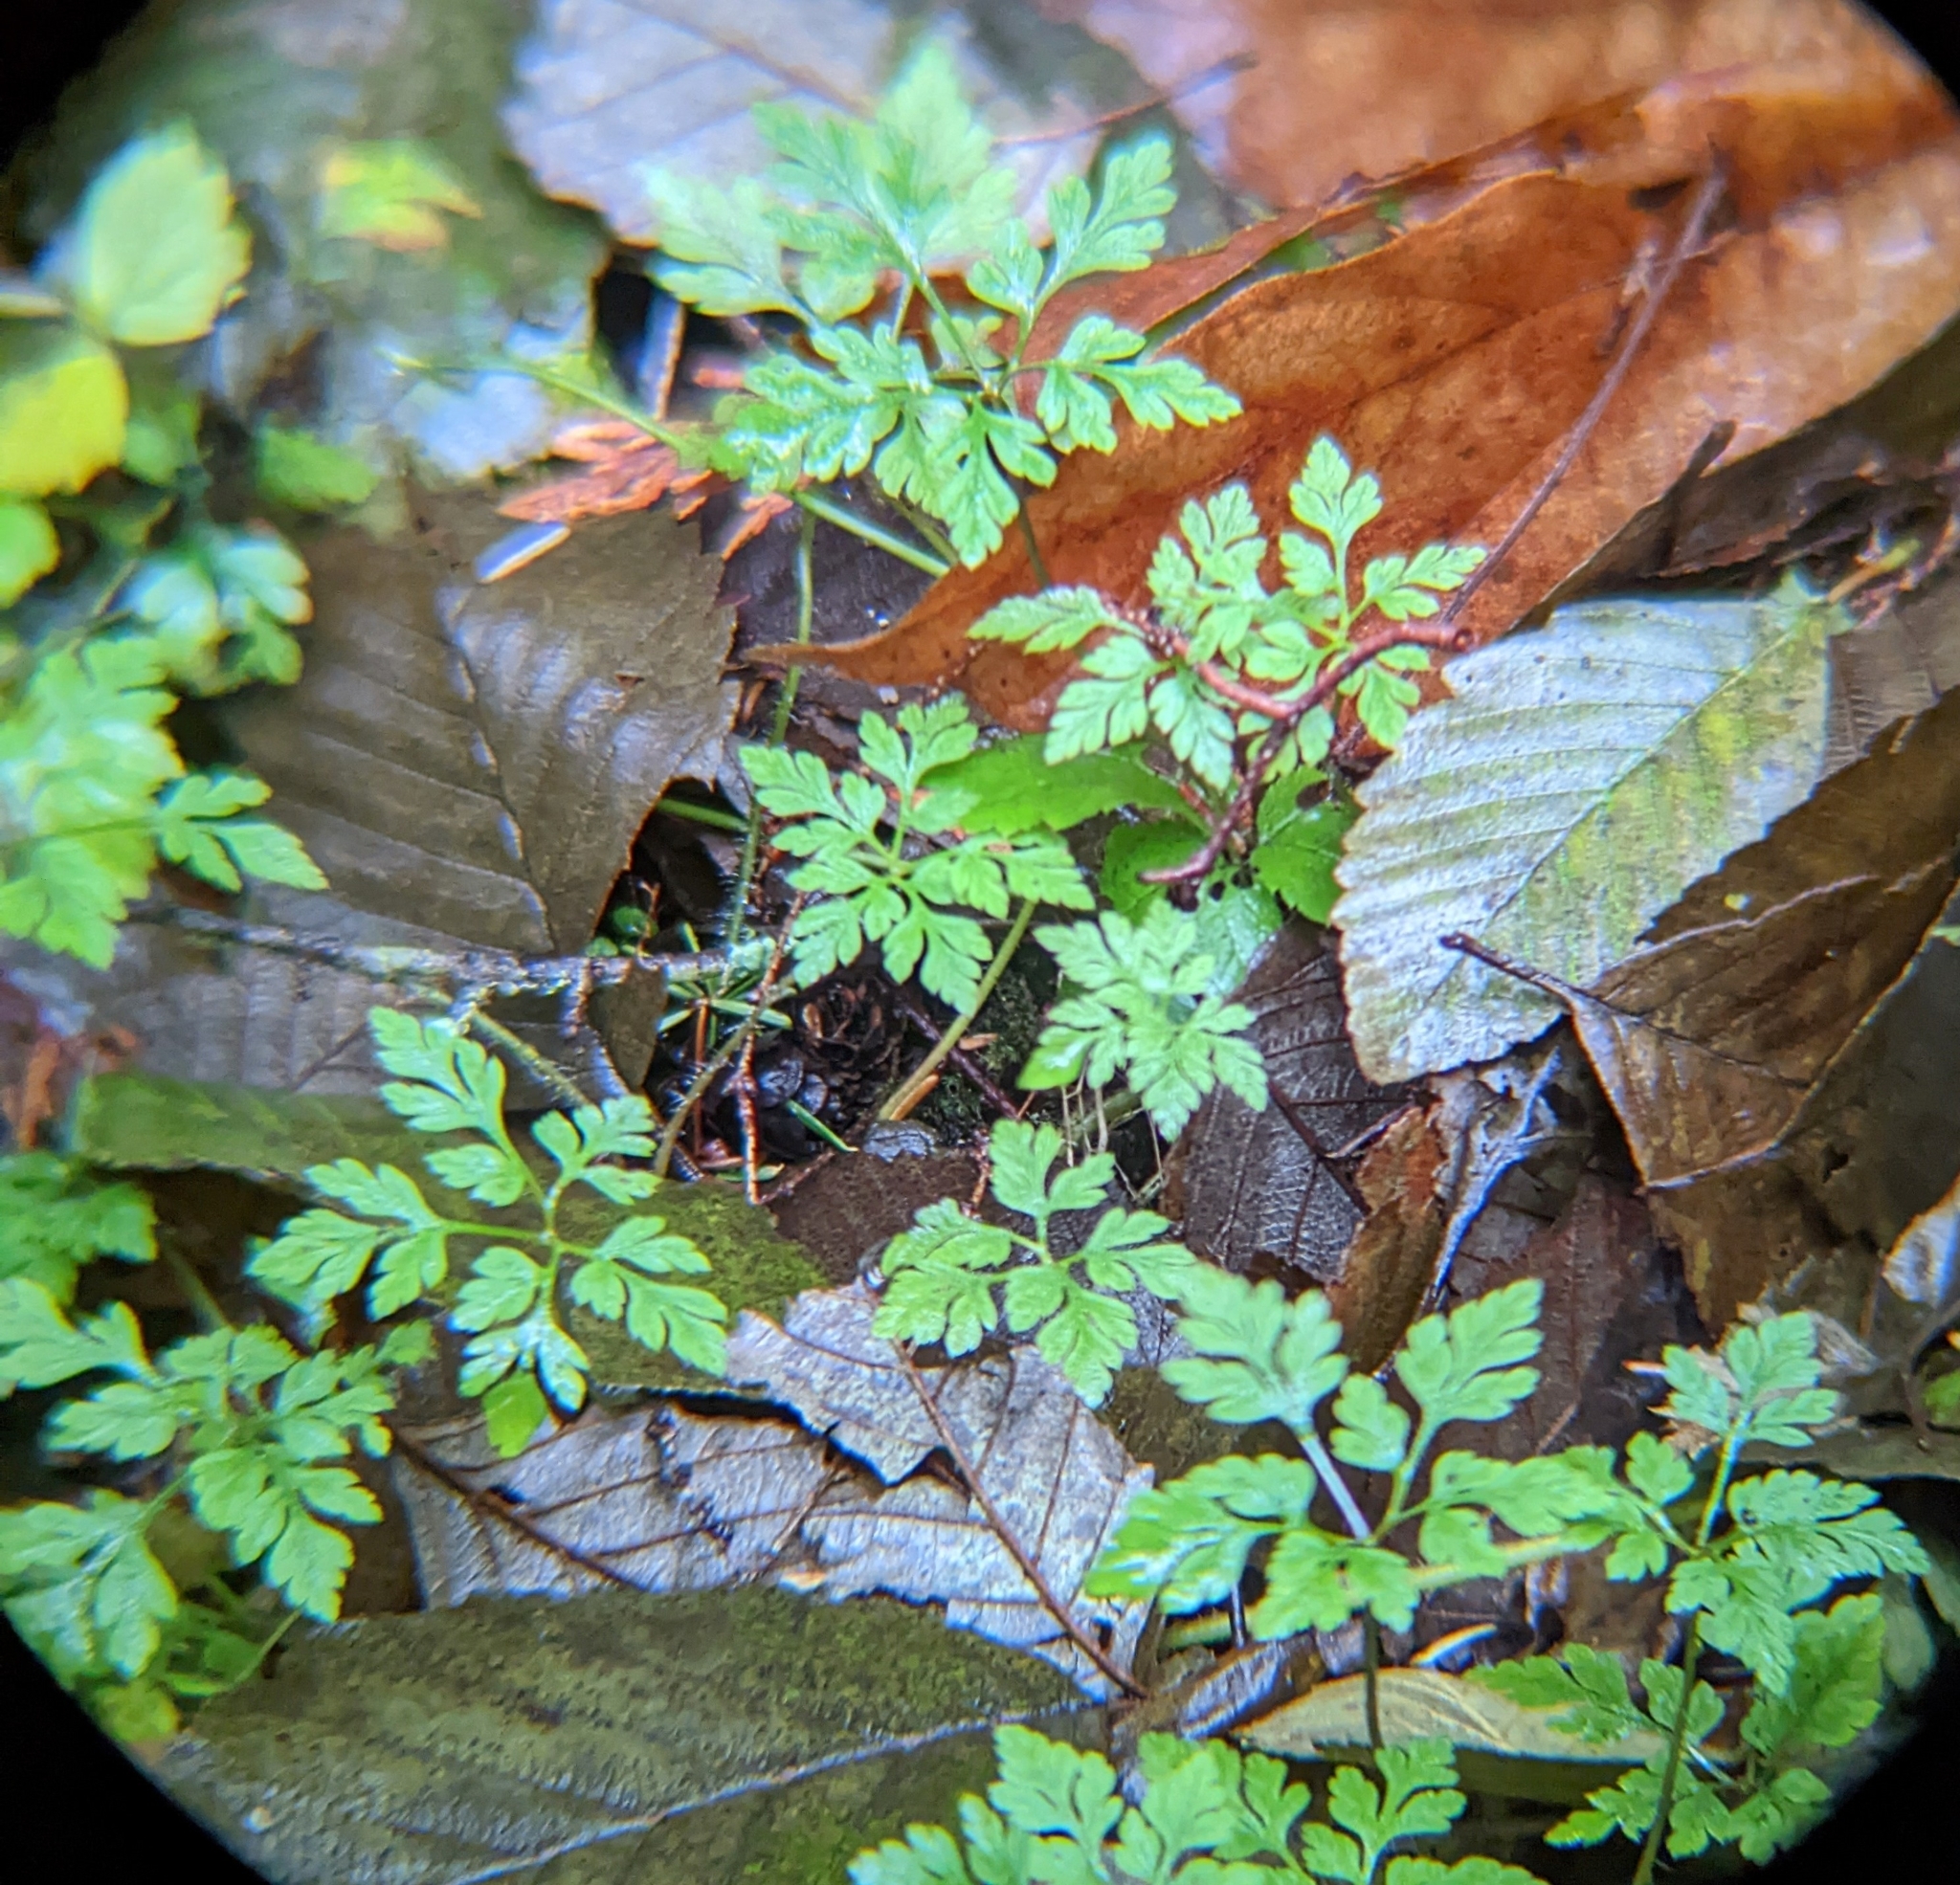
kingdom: Plantae
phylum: Tracheophyta
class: Magnoliopsida
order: Geraniales
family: Geraniaceae
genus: Geranium
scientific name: Geranium robertianum
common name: Herb-robert
